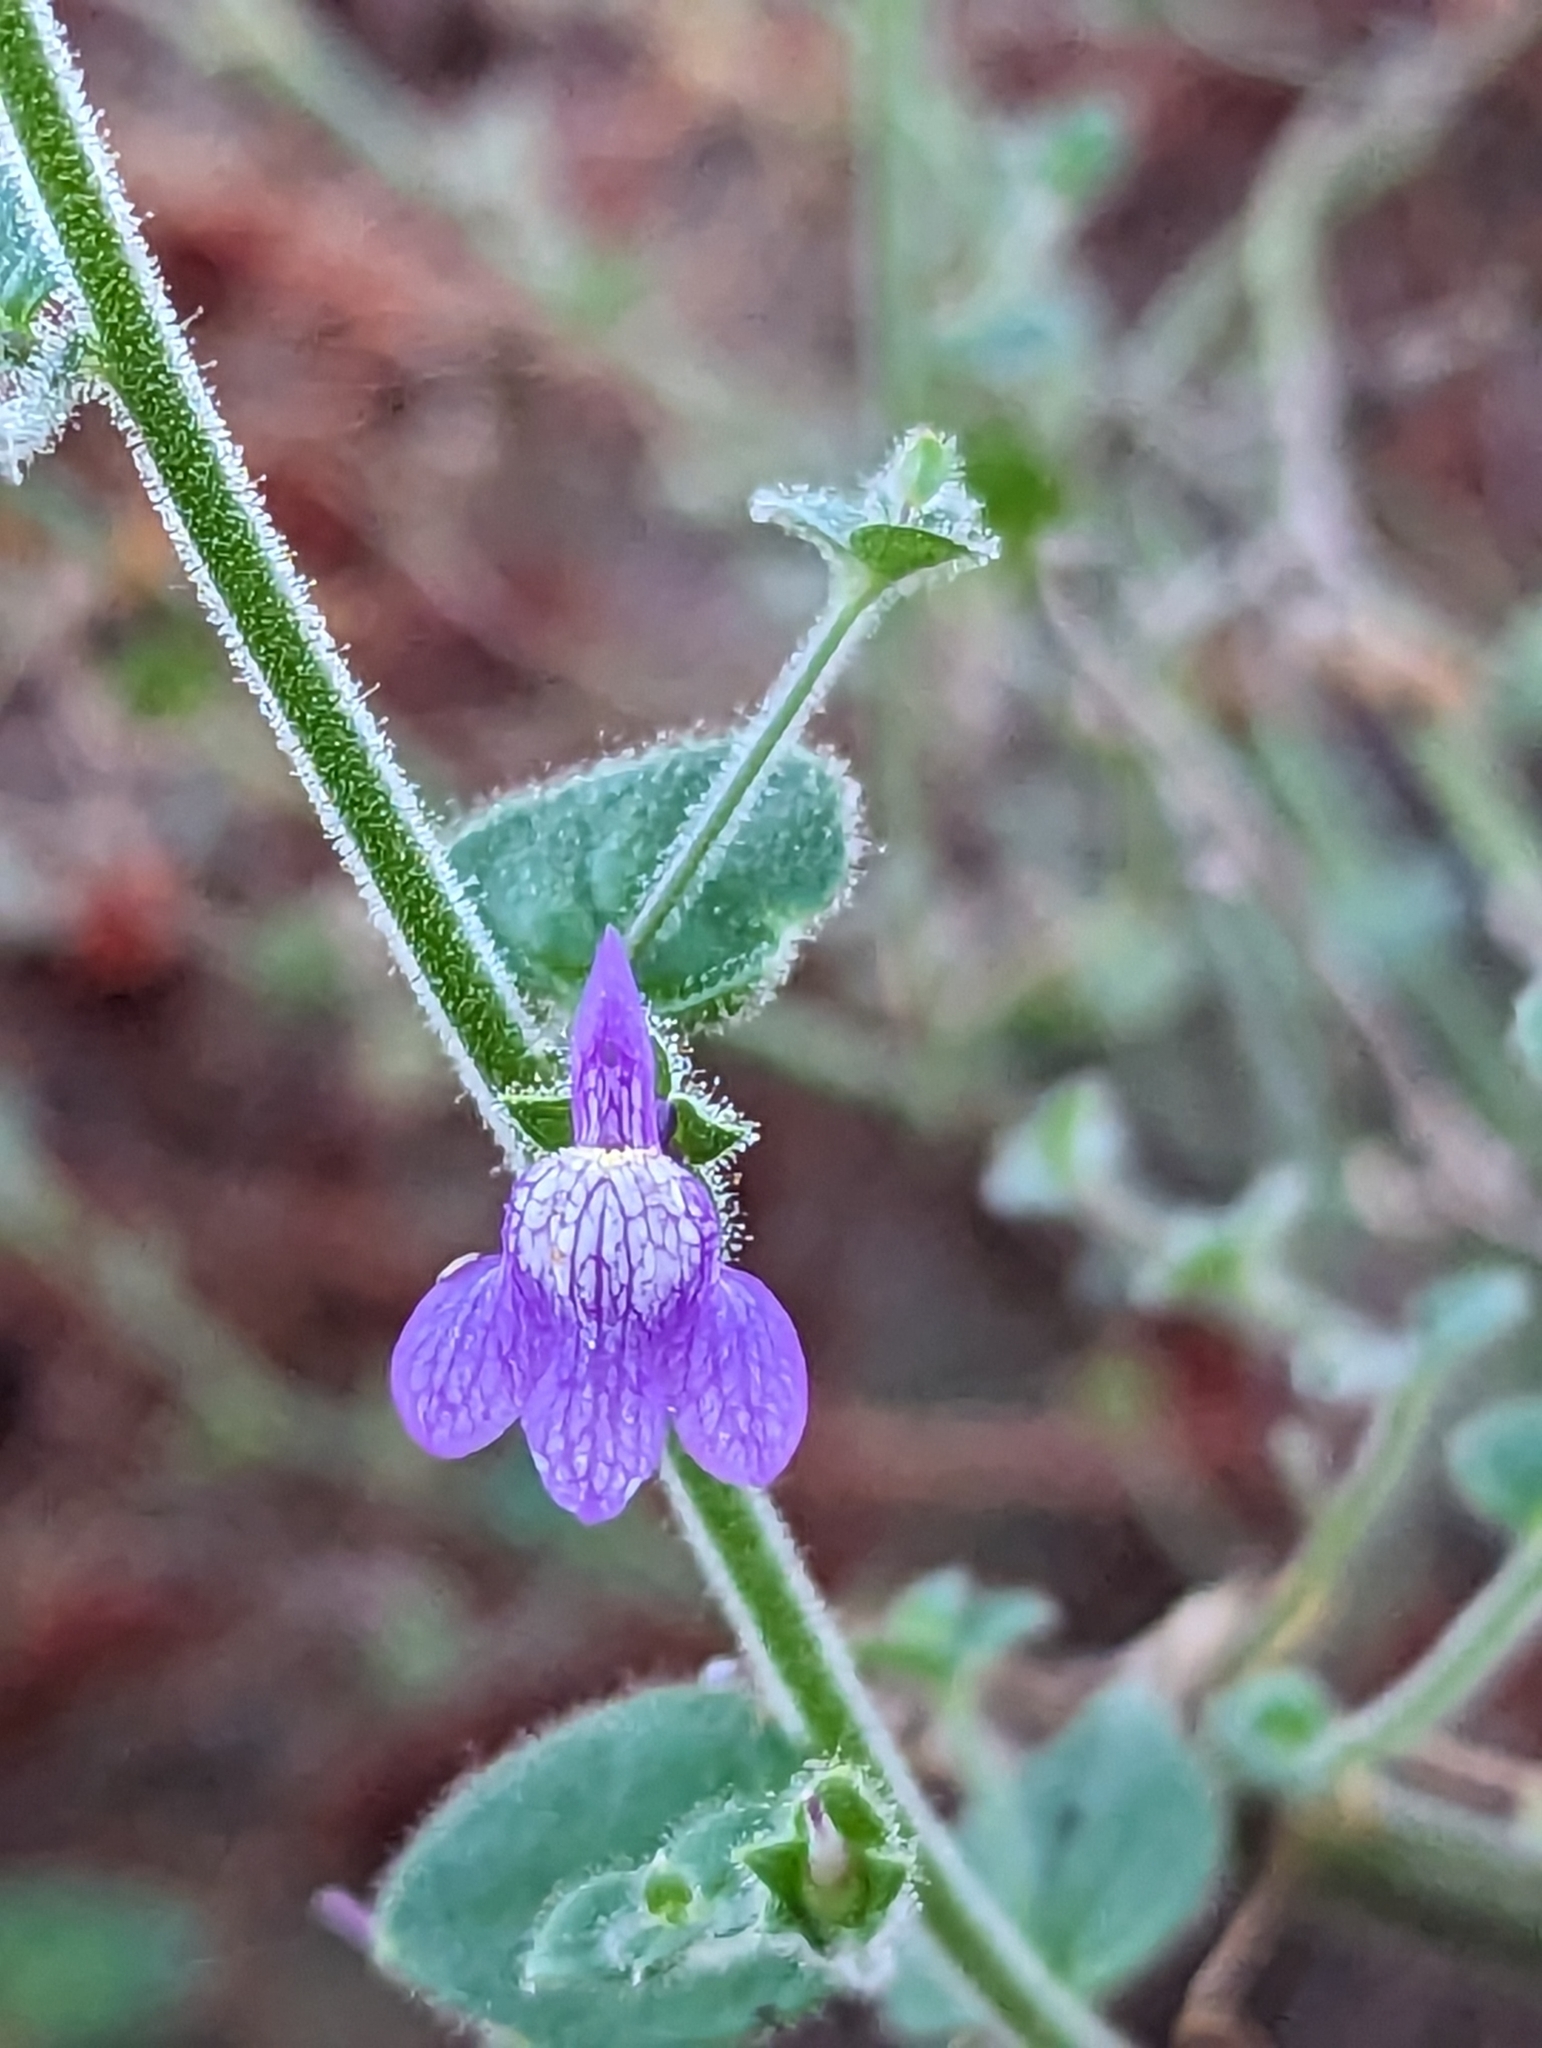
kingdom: Plantae
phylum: Tracheophyta
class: Magnoliopsida
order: Lamiales
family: Plantaginaceae
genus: Sairocarpus
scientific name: Sairocarpus nuttallianus
